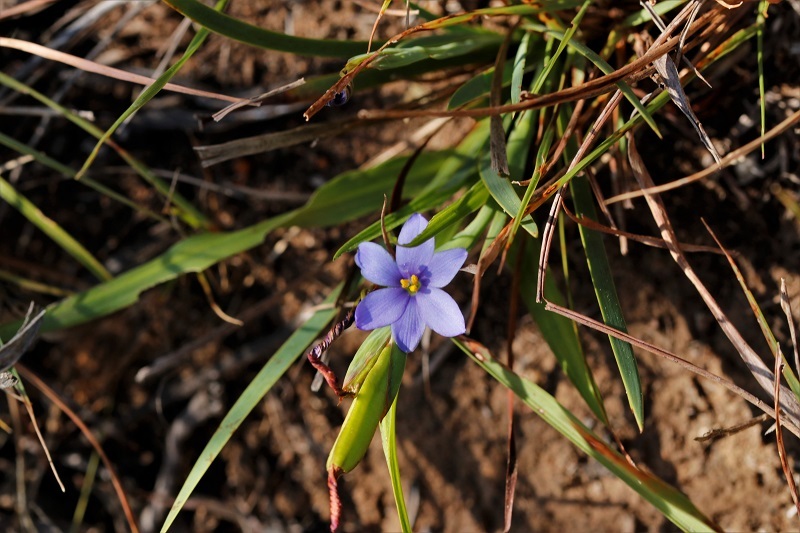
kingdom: Plantae
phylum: Tracheophyta
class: Liliopsida
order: Asparagales
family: Iridaceae
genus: Aristea
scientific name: Aristea pusilla
